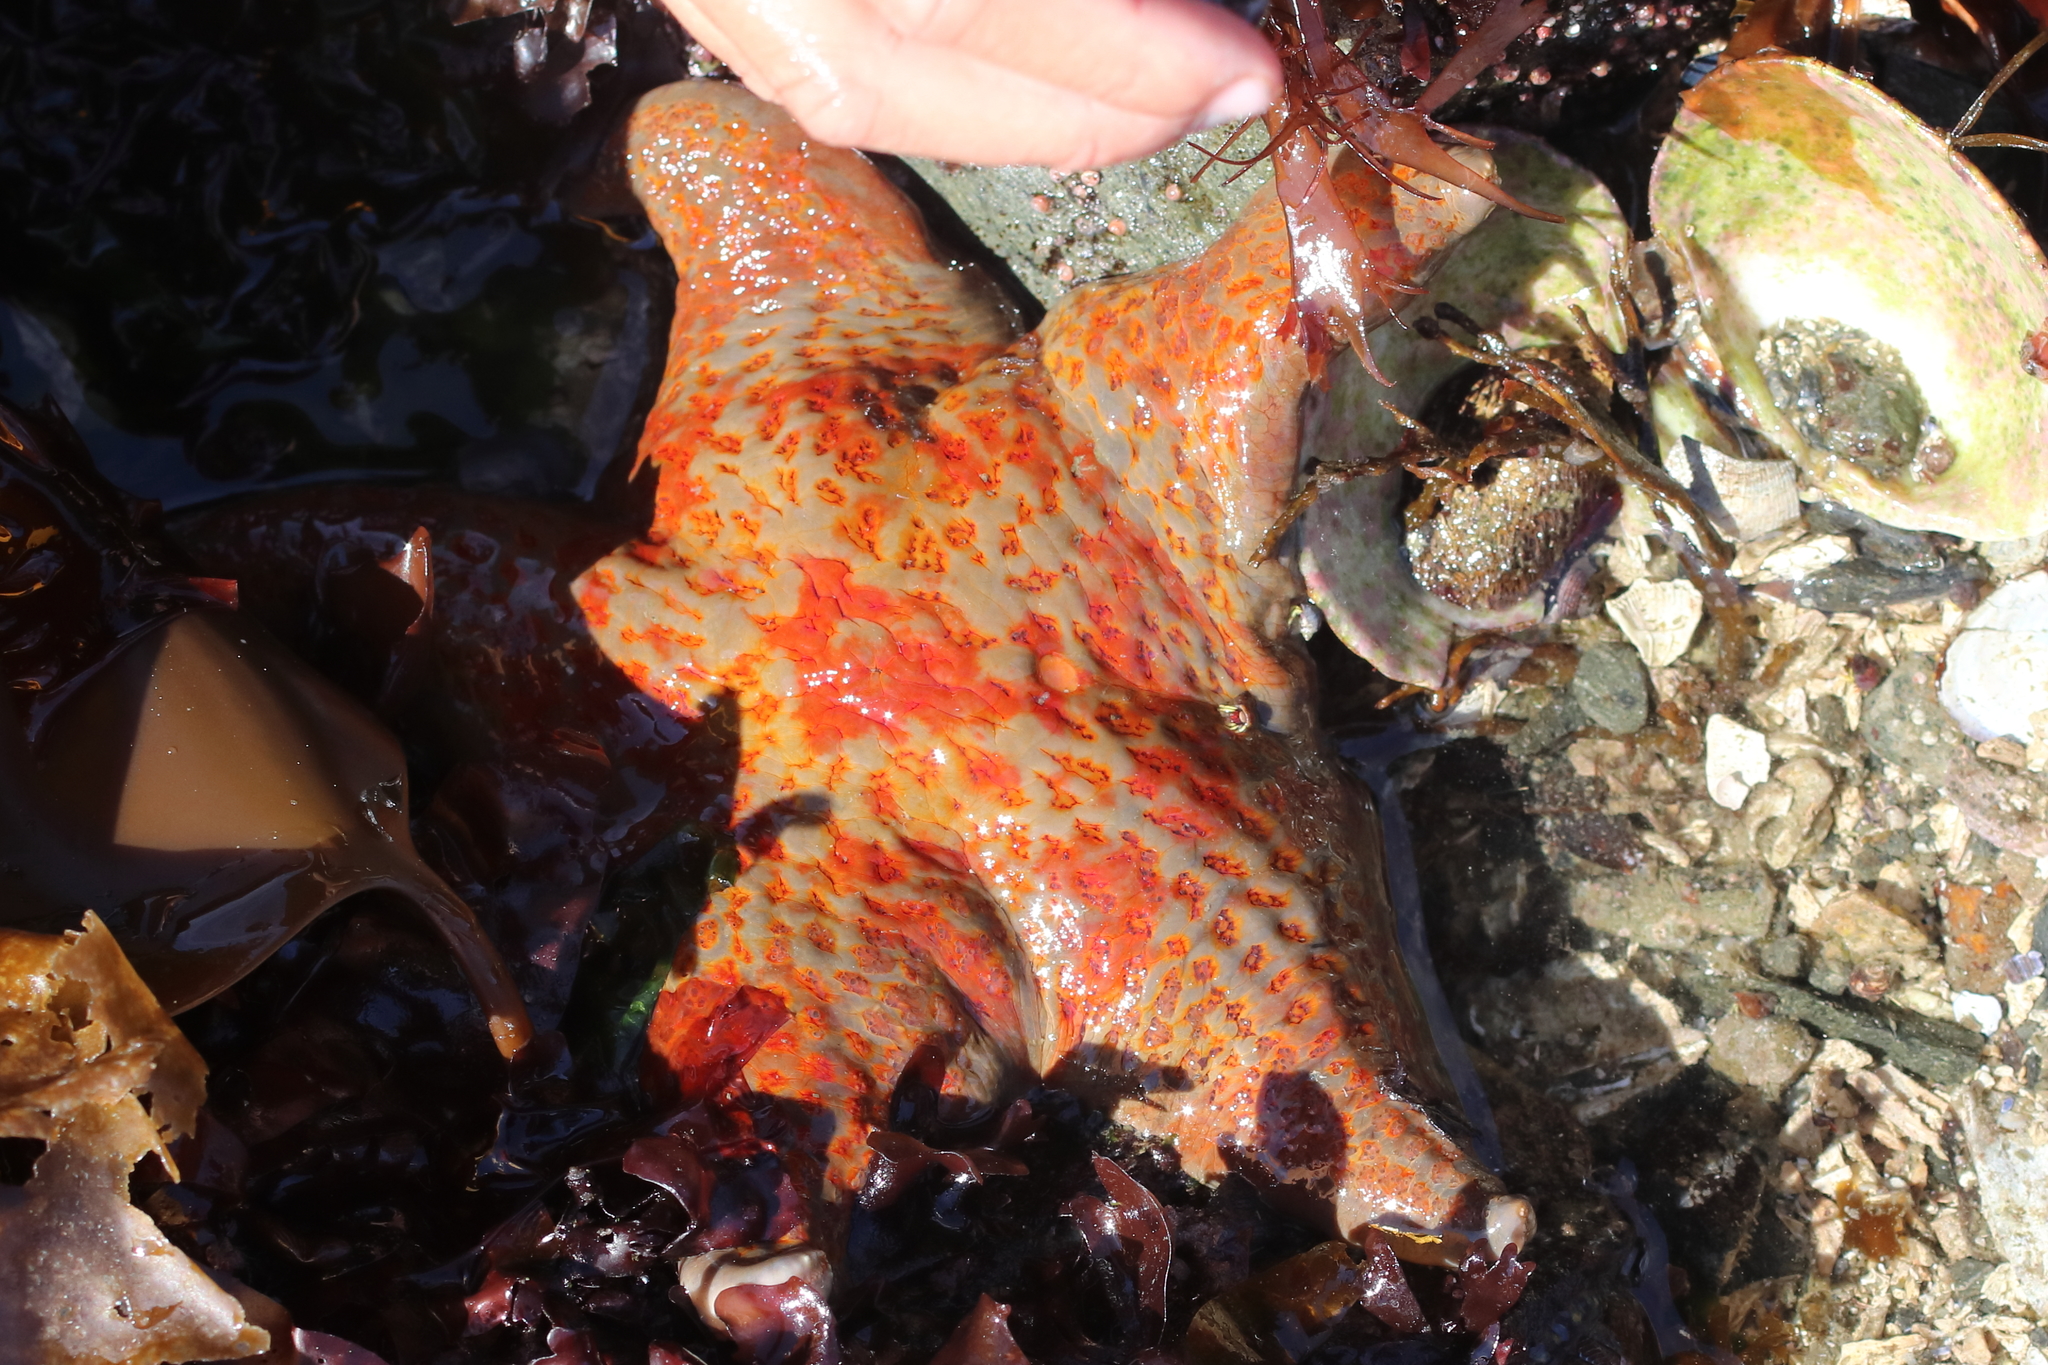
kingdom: Animalia
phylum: Echinodermata
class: Asteroidea
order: Valvatida
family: Asteropseidae
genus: Dermasterias
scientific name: Dermasterias imbricata
